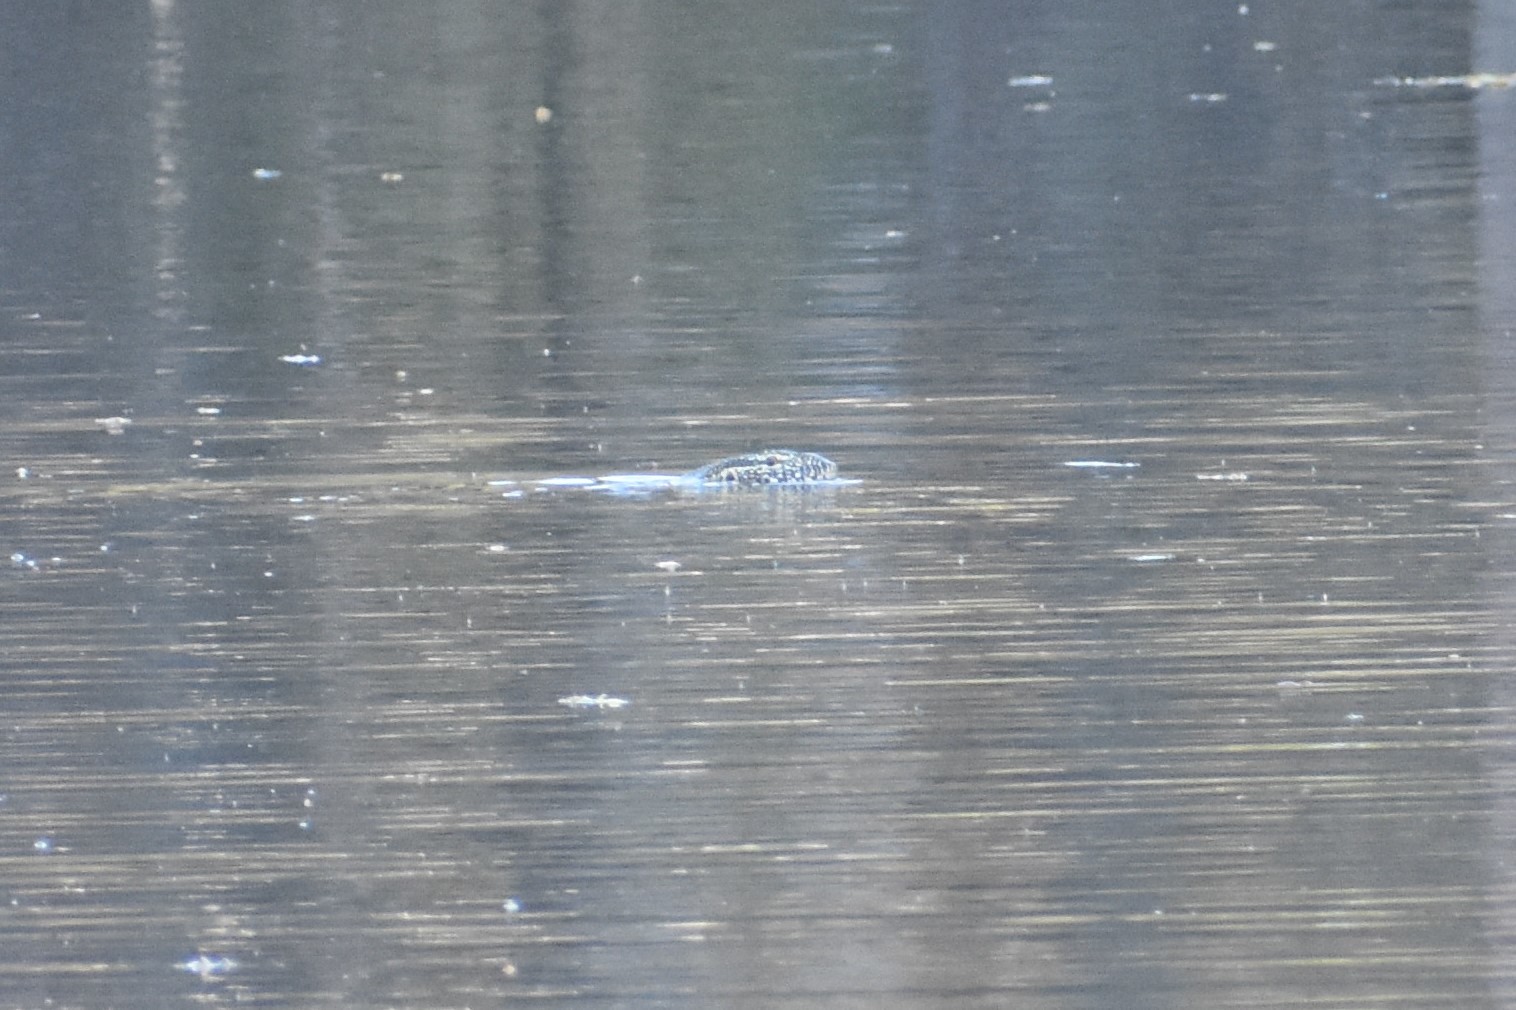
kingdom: Animalia
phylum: Chordata
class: Squamata
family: Varanidae
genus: Varanus
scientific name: Varanus niloticus
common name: Nile monitor
